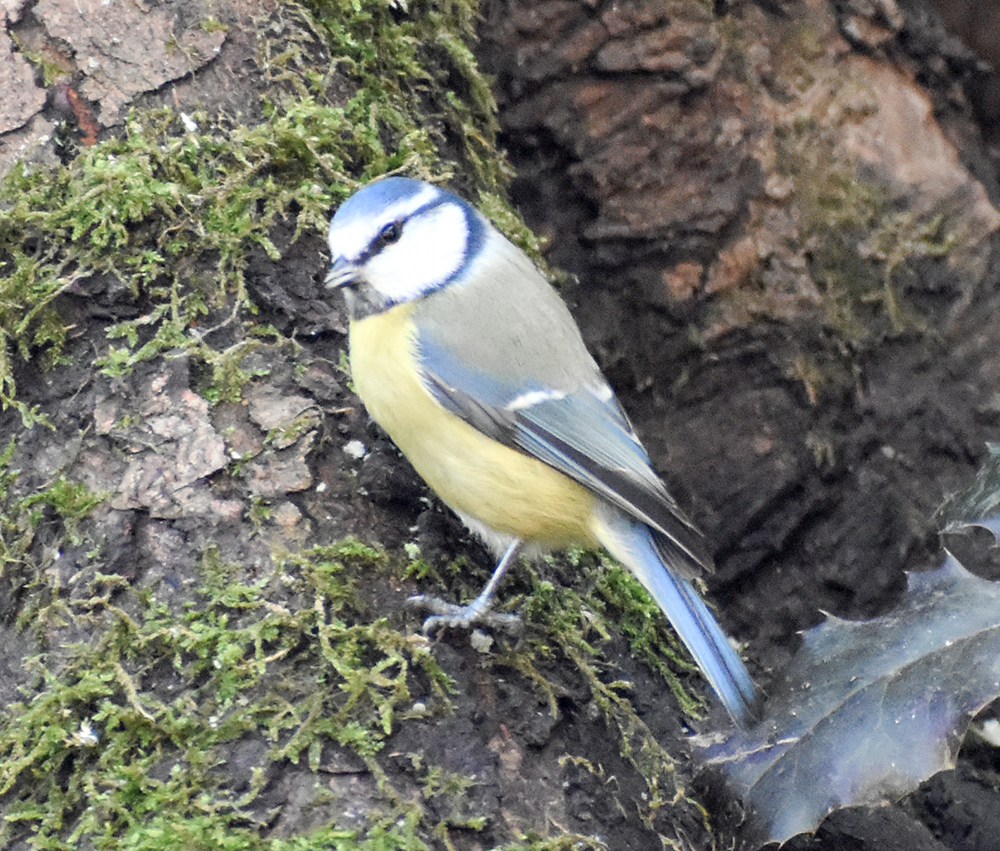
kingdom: Animalia
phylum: Chordata
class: Aves
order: Passeriformes
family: Paridae
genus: Cyanistes
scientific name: Cyanistes caeruleus
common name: Eurasian blue tit
